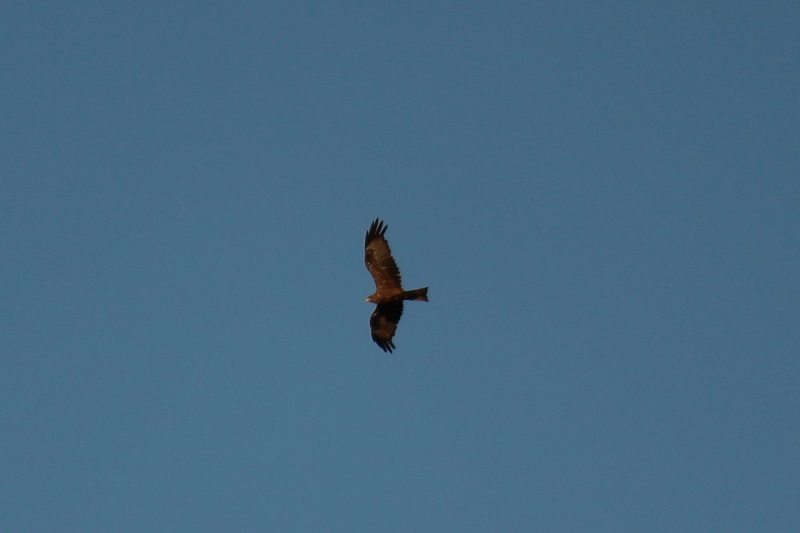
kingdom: Animalia
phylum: Chordata
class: Aves
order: Accipitriformes
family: Accipitridae
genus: Milvus
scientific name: Milvus migrans
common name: Black kite
